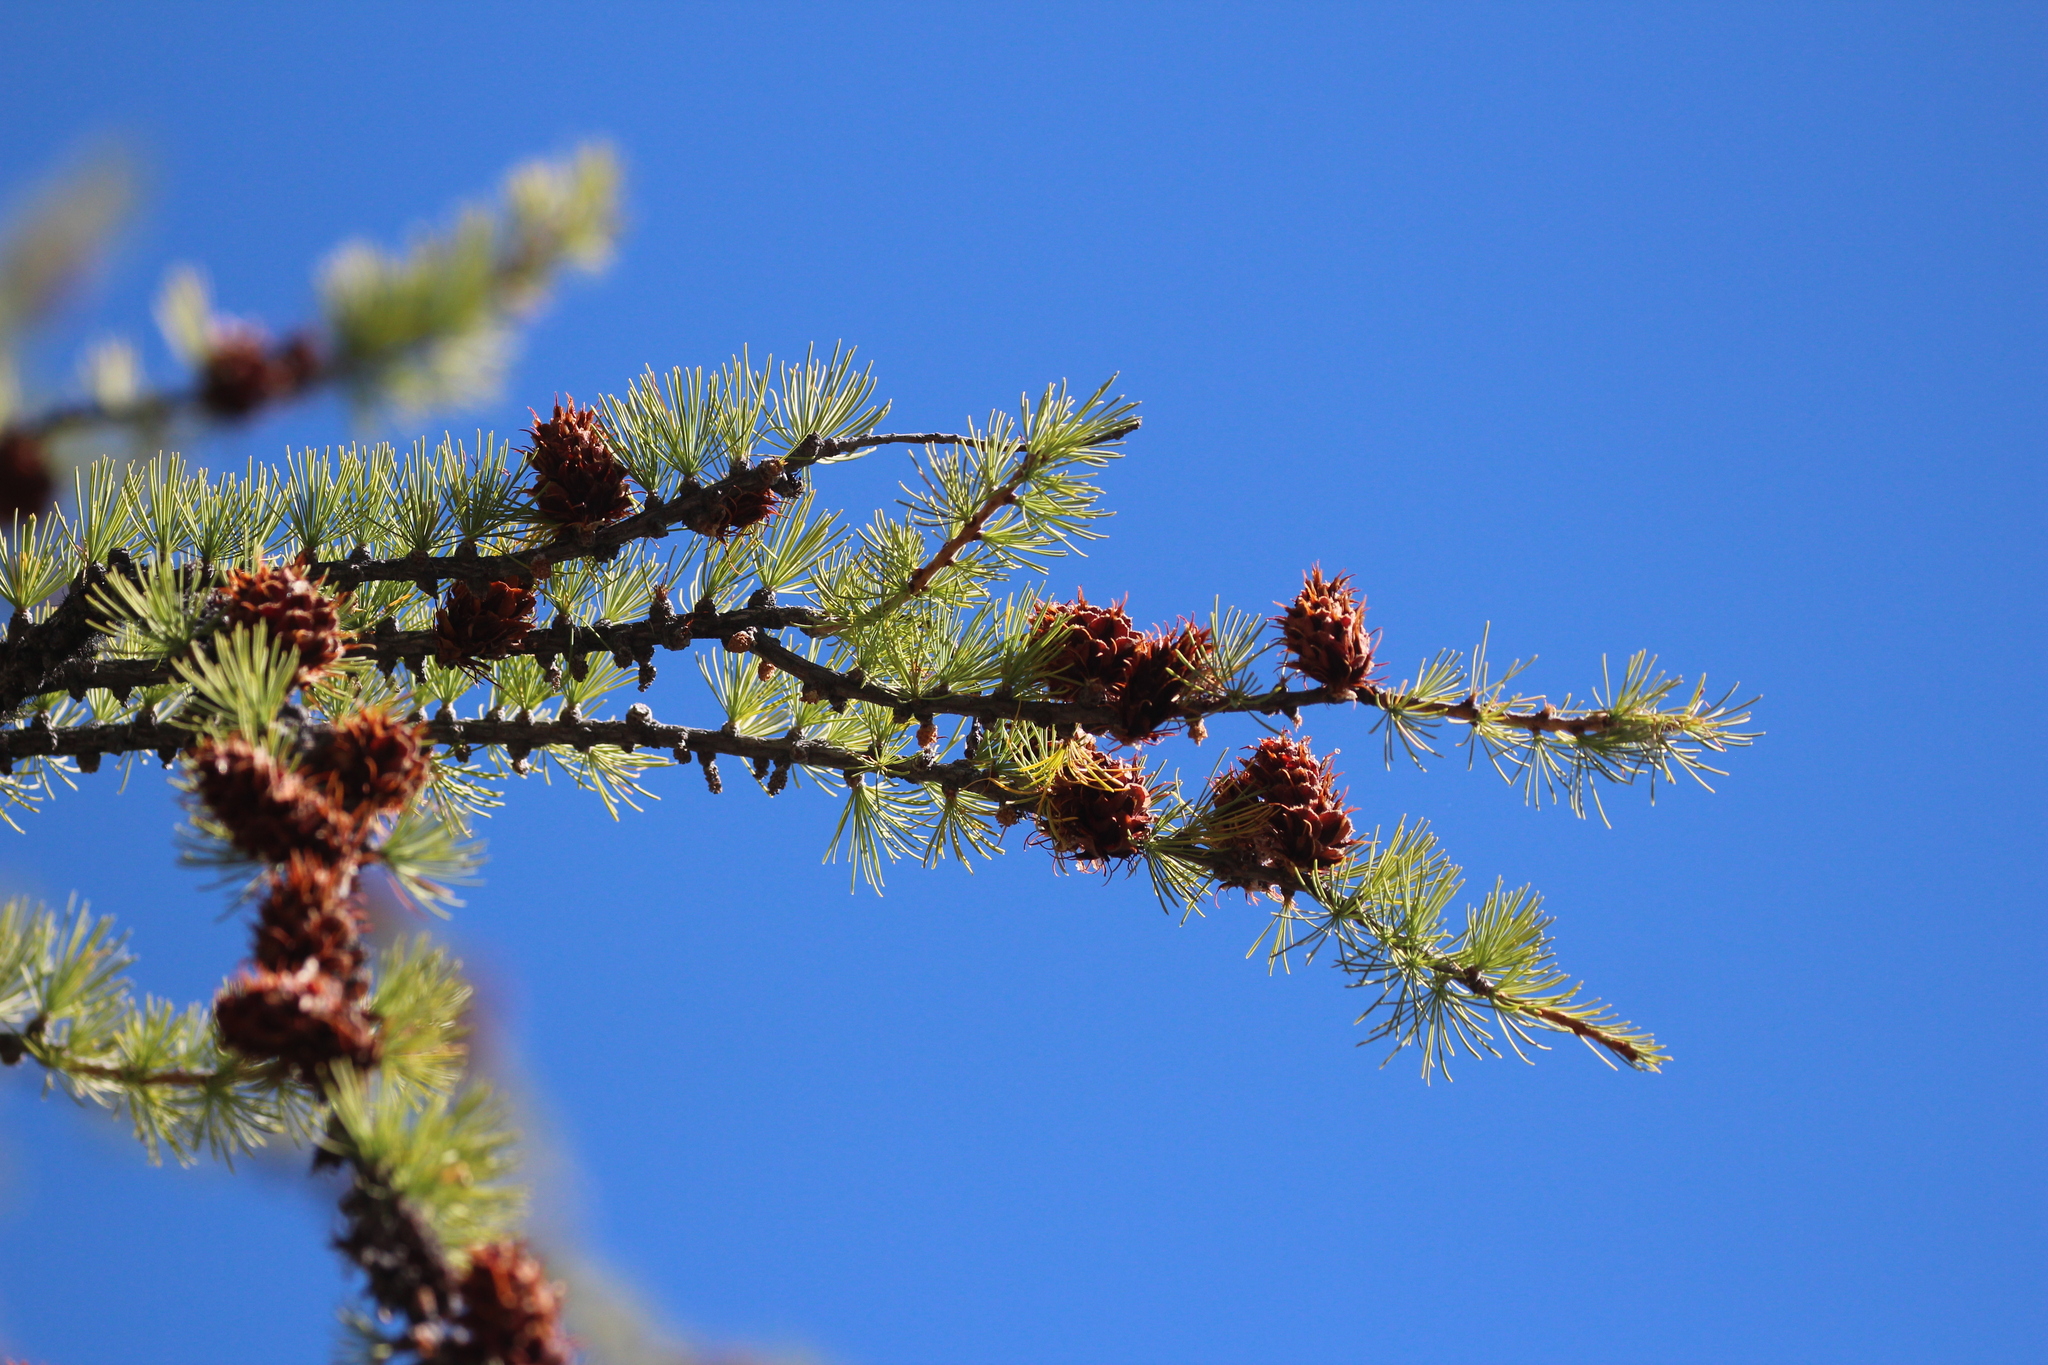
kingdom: Plantae
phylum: Tracheophyta
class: Pinopsida
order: Pinales
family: Pinaceae
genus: Larix
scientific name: Larix lyallii
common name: Alpine larch
